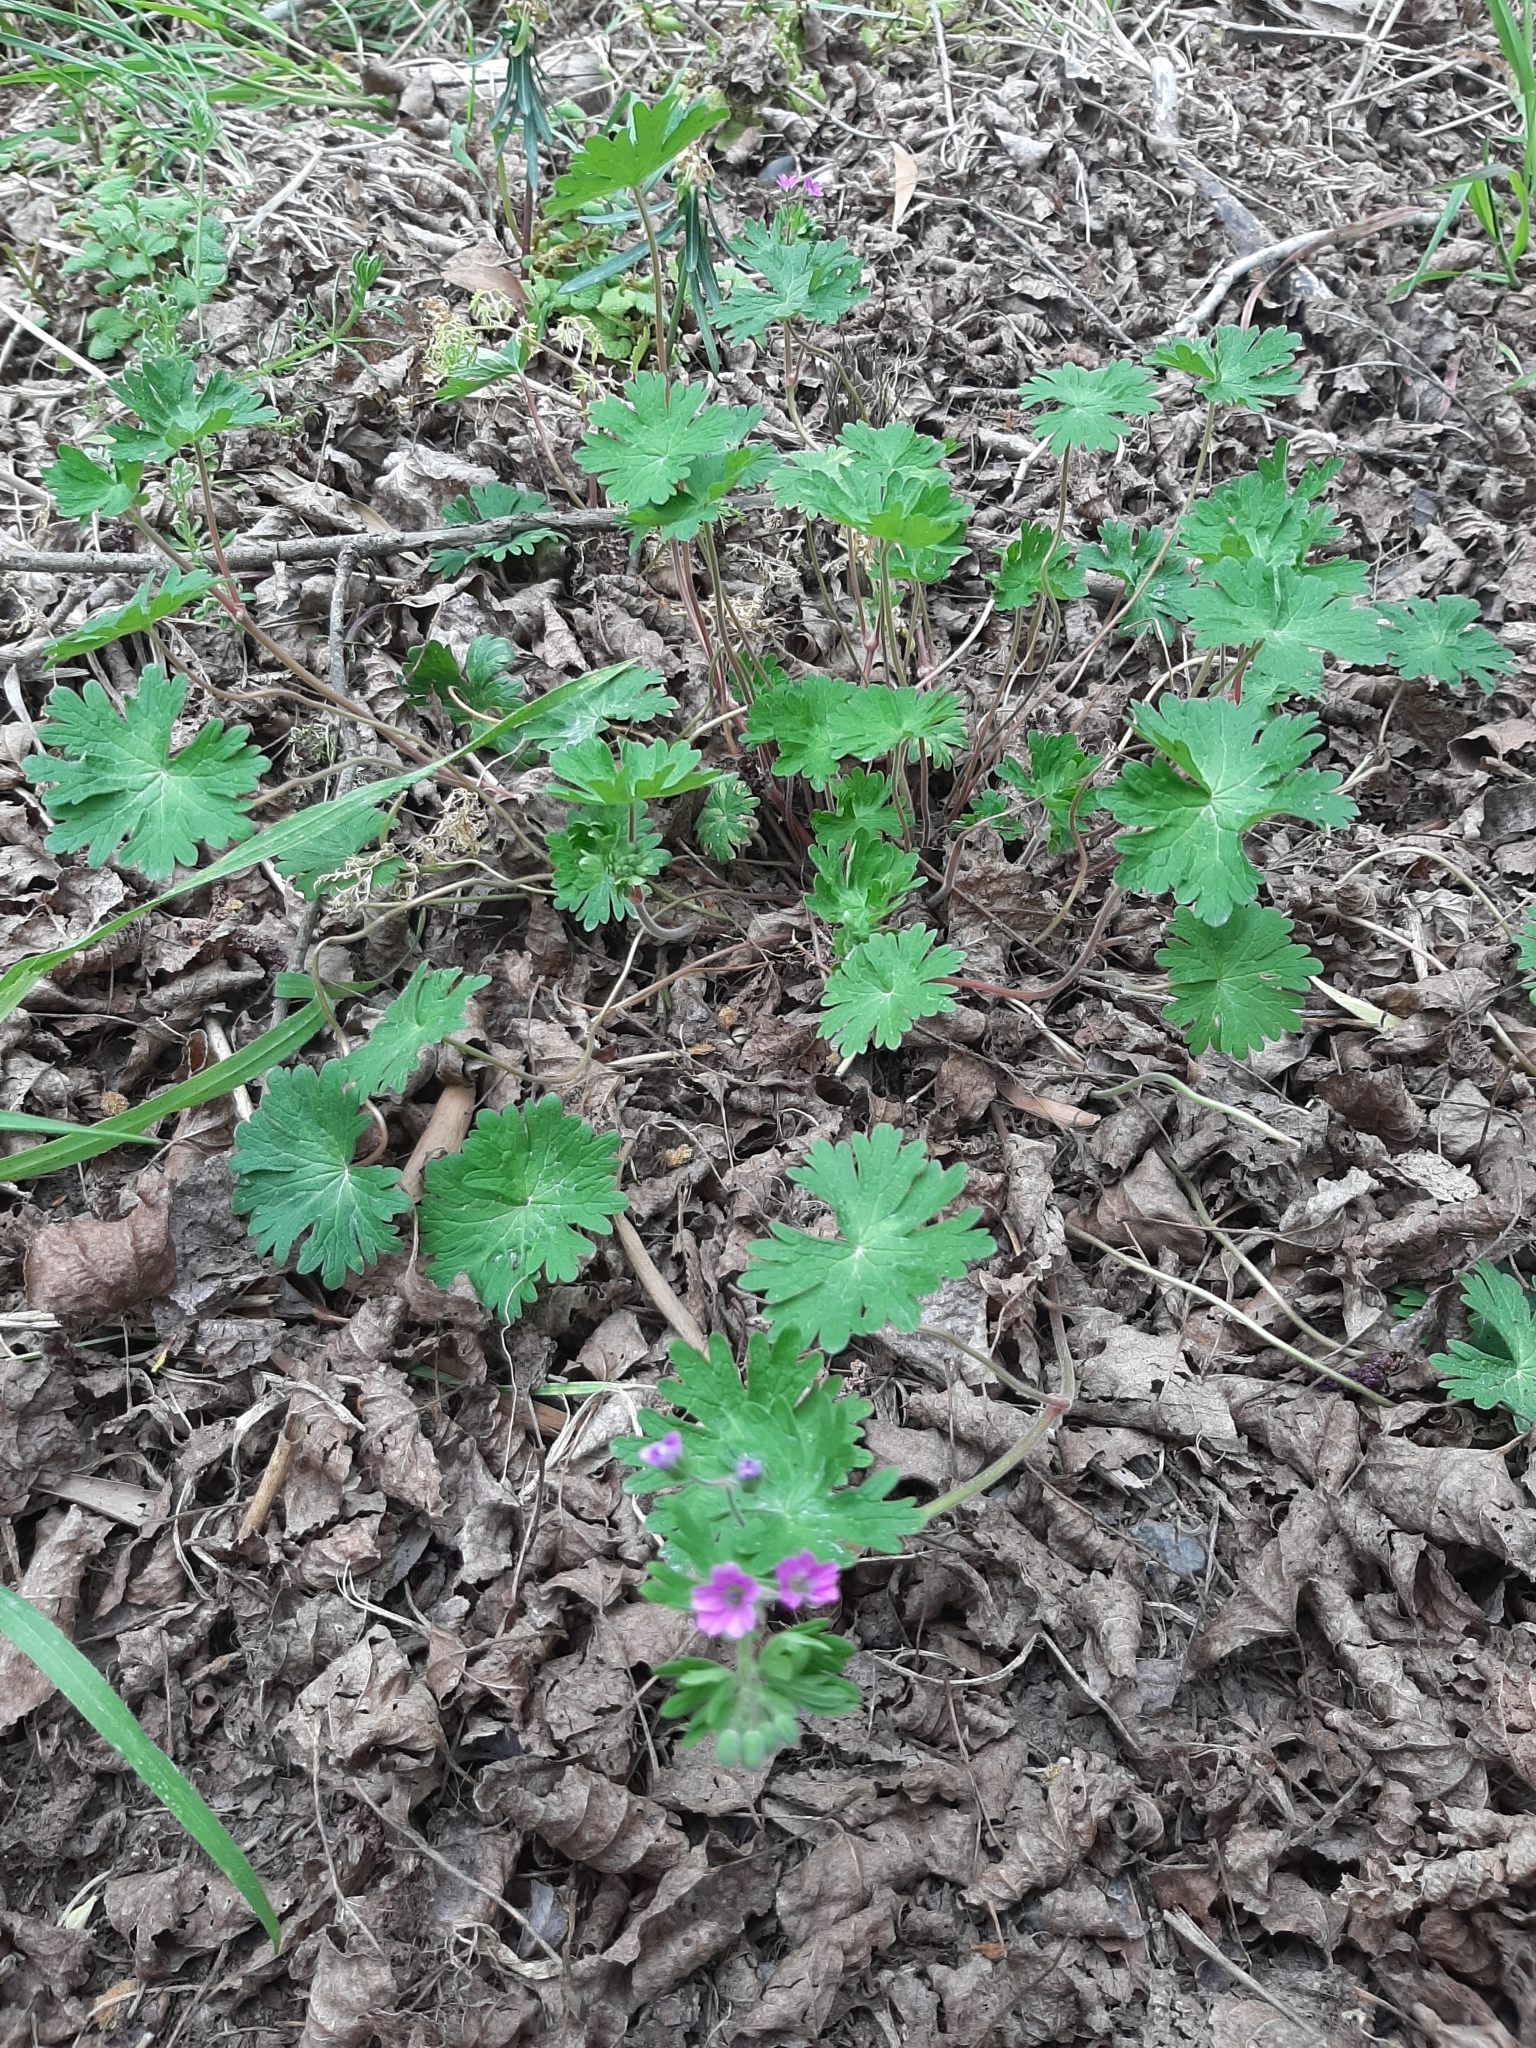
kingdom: Plantae
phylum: Tracheophyta
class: Magnoliopsida
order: Geraniales
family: Geraniaceae
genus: Geranium
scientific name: Geranium molle
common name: Dove's-foot crane's-bill
